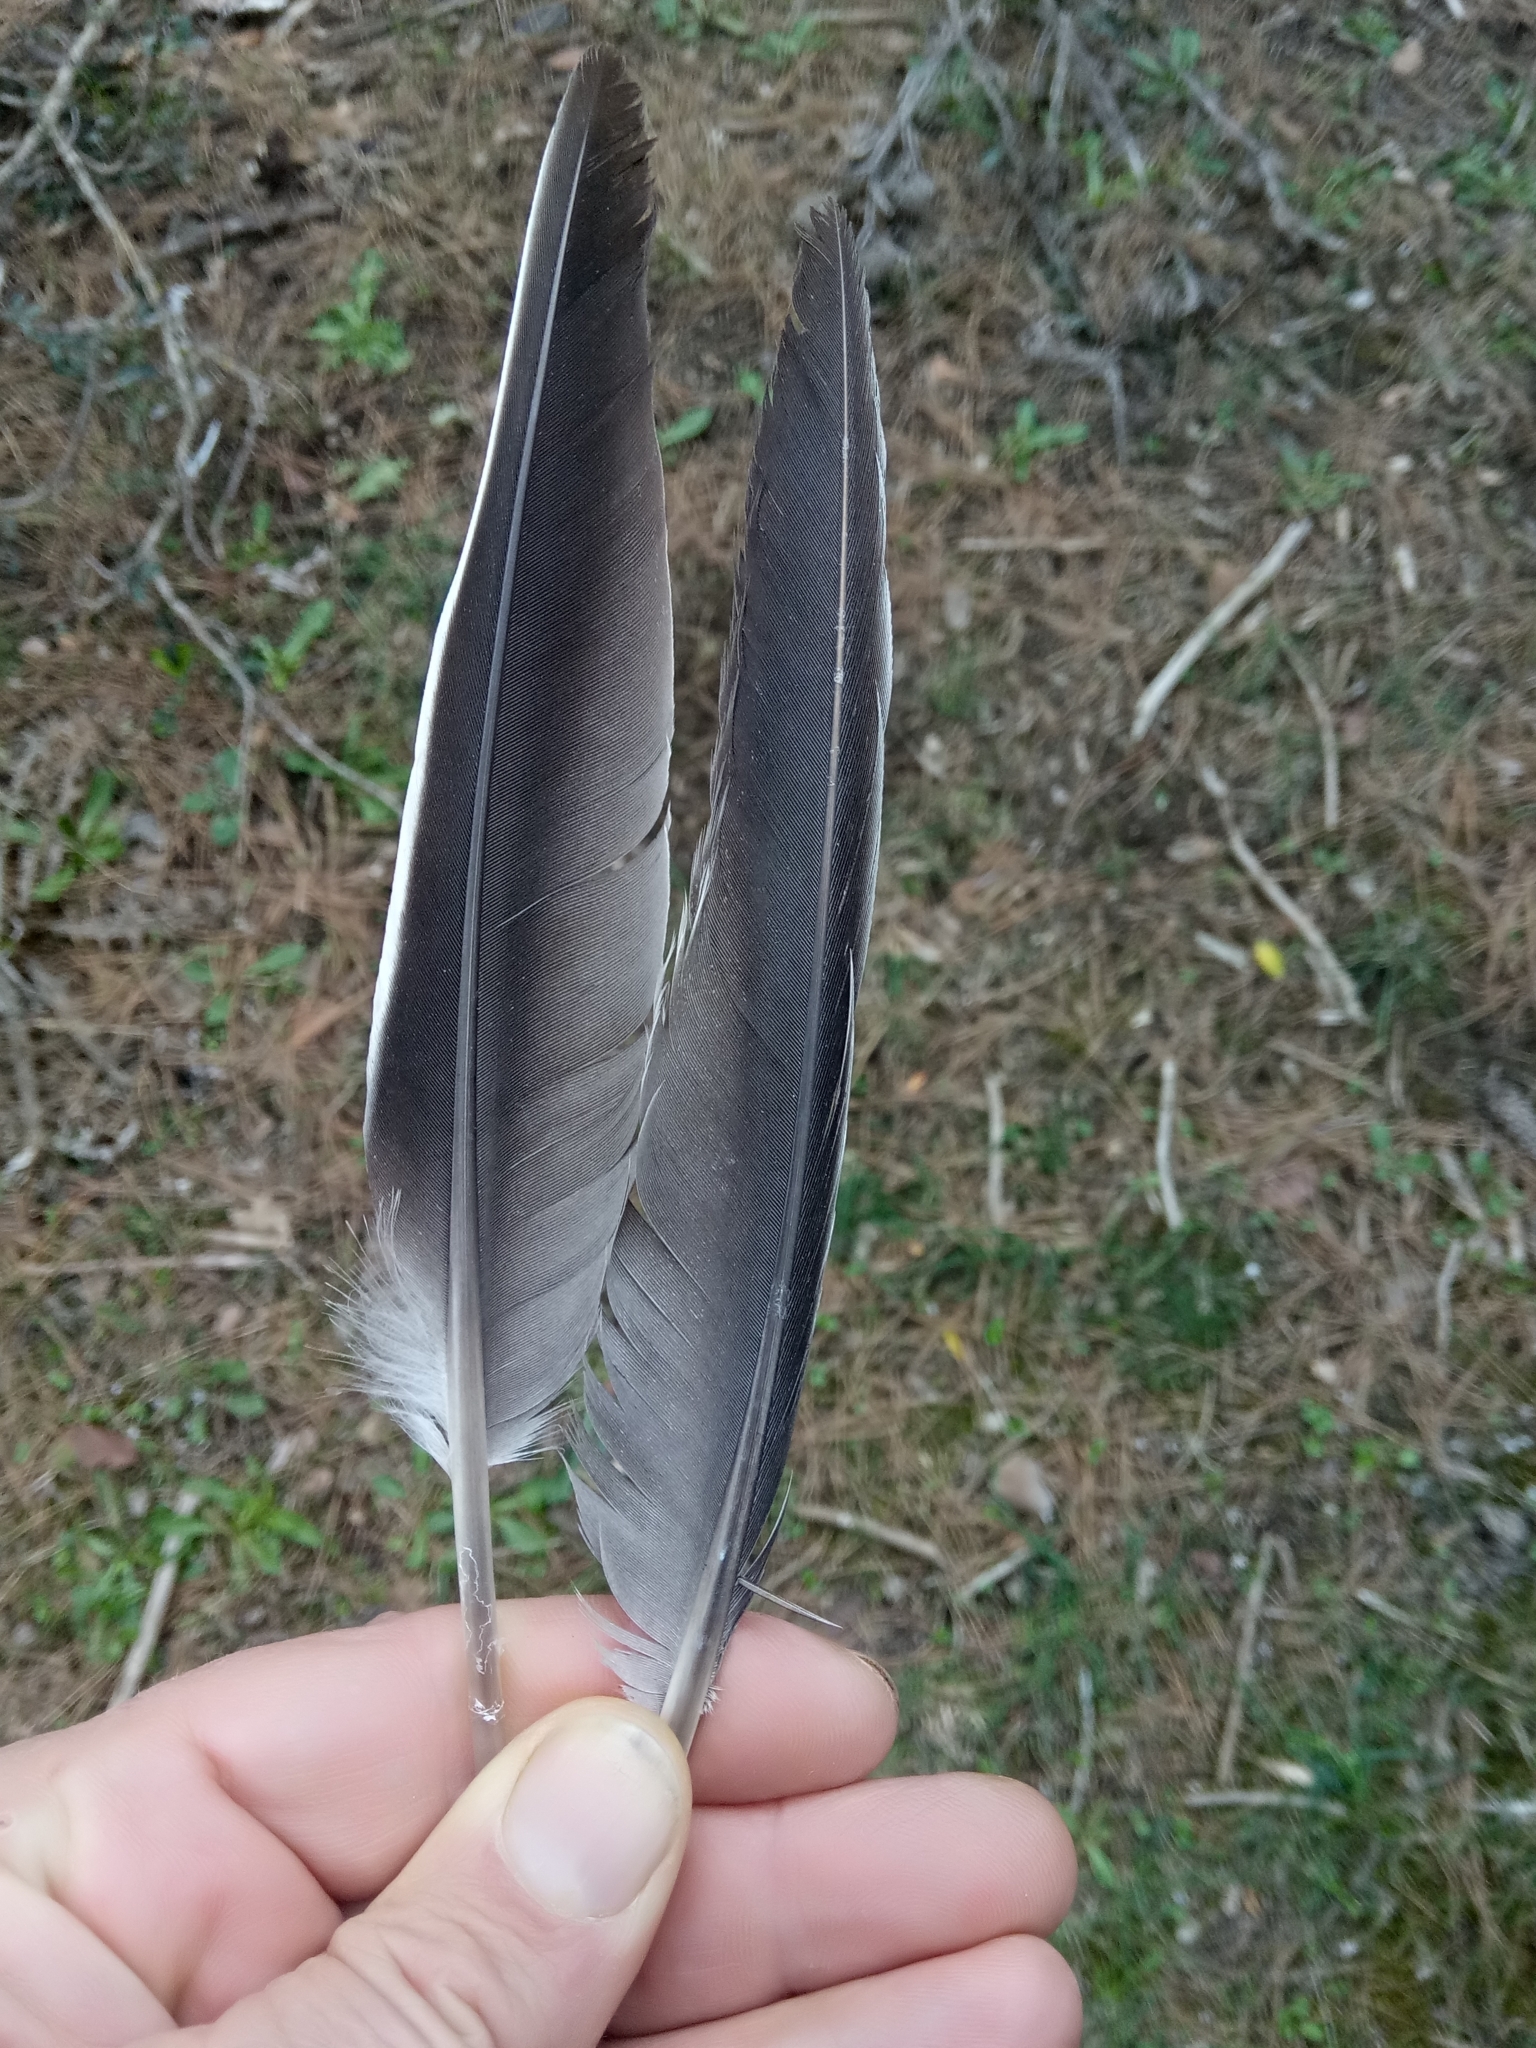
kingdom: Animalia
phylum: Chordata
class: Aves
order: Columbiformes
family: Columbidae
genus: Columba
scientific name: Columba palumbus
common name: Common wood pigeon
